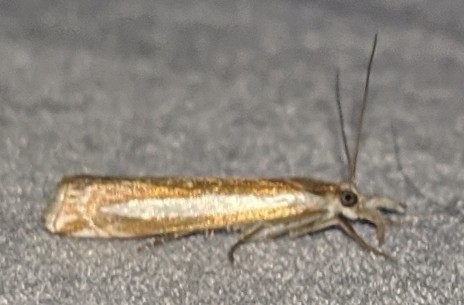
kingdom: Animalia
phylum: Arthropoda
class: Insecta
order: Lepidoptera
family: Crambidae
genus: Crambus
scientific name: Crambus praefectellus
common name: Common grass-veneer
